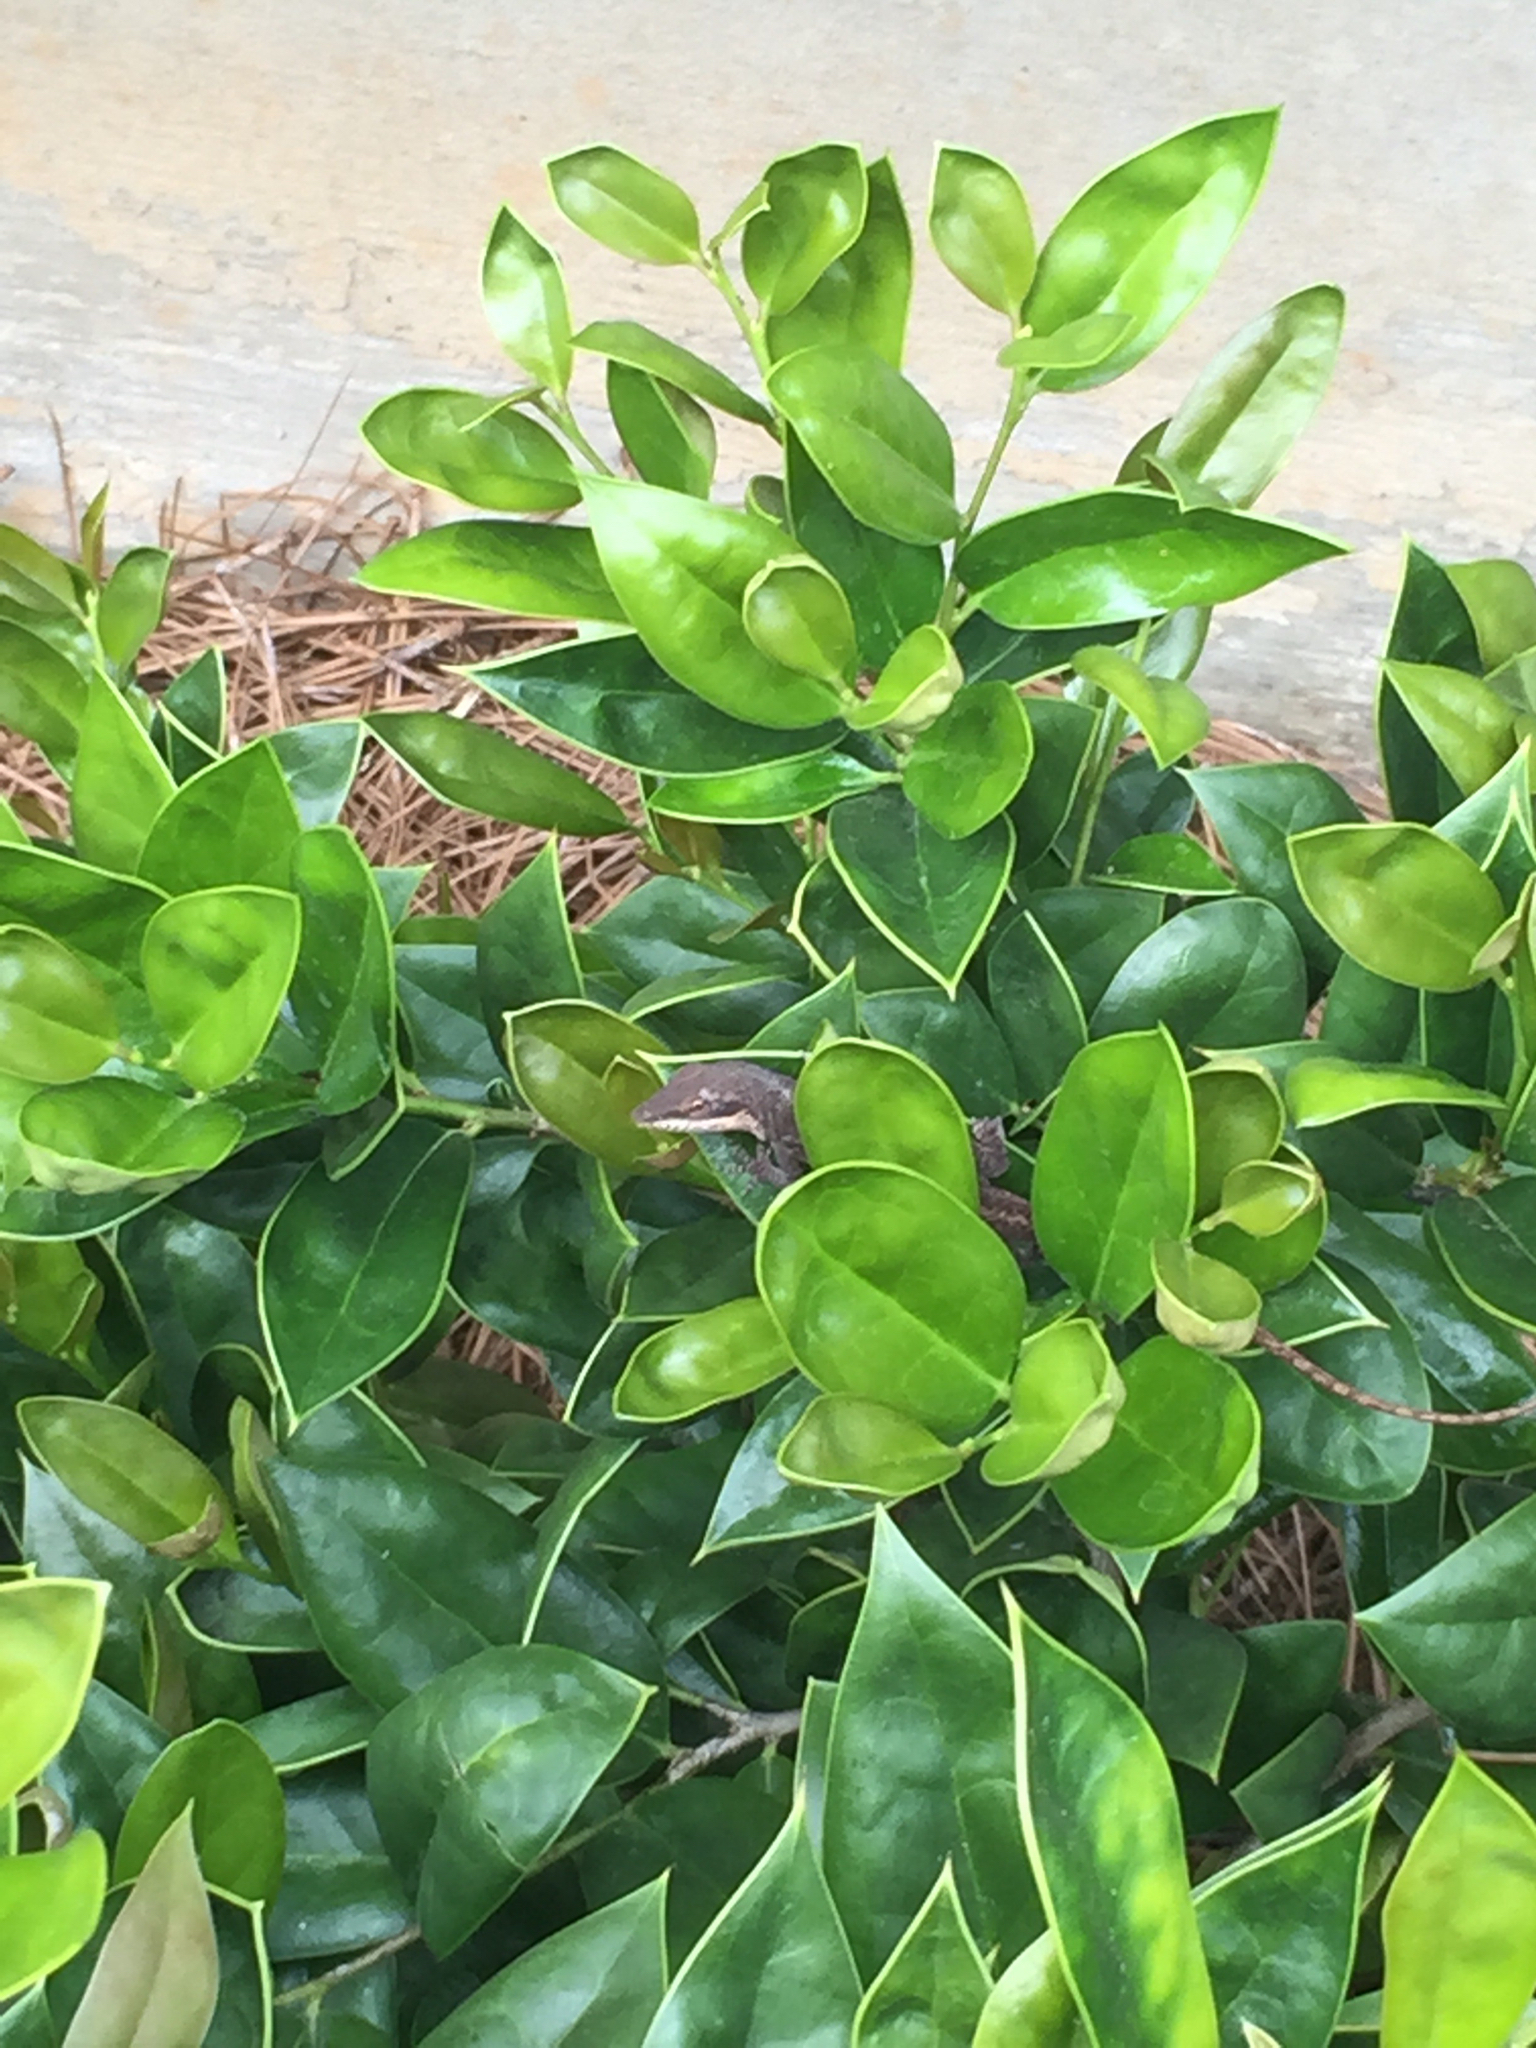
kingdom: Animalia
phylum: Chordata
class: Squamata
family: Dactyloidae
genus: Anolis
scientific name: Anolis carolinensis
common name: Green anole
